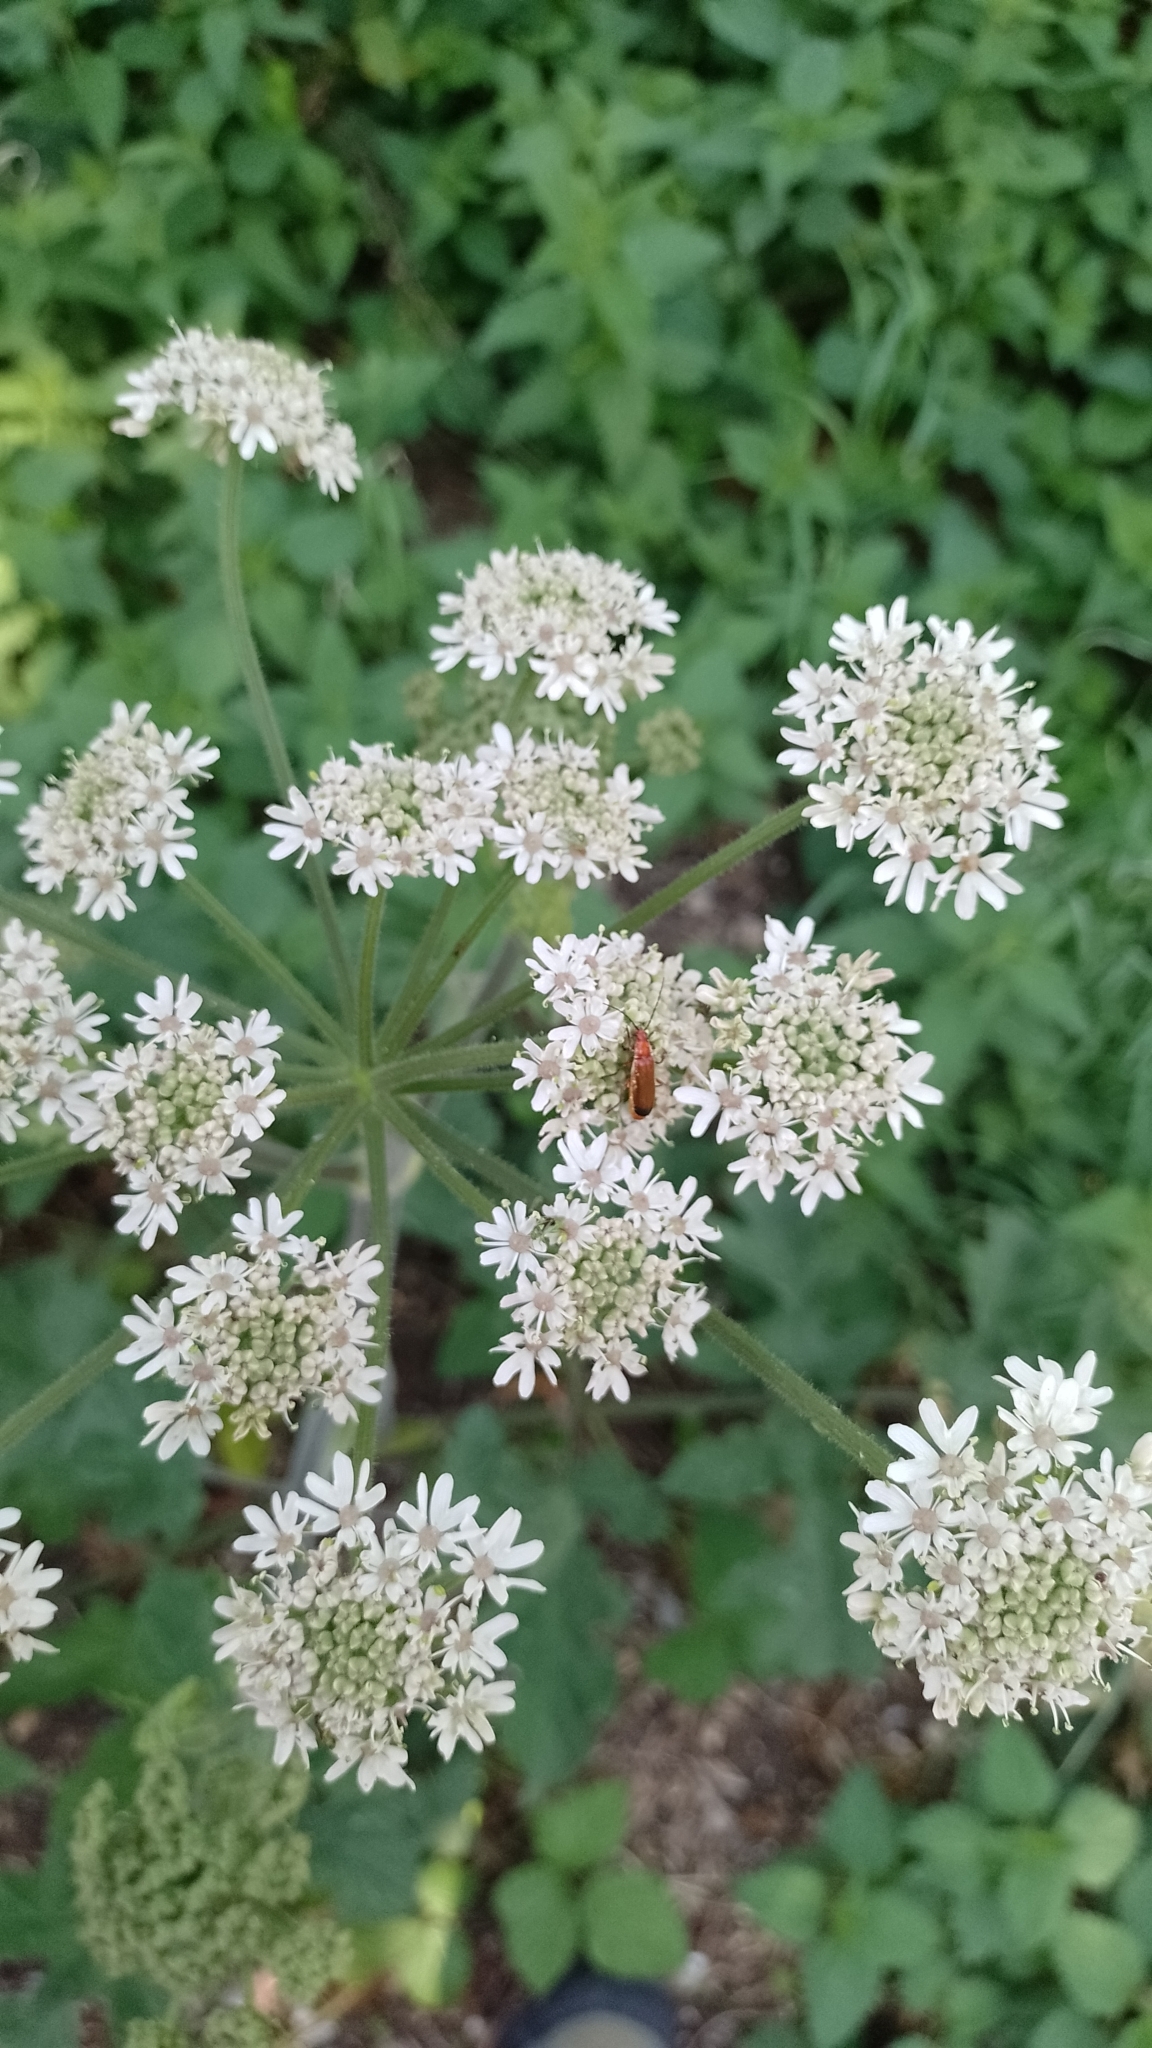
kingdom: Animalia
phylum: Arthropoda
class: Insecta
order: Coleoptera
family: Cantharidae
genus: Rhagonycha
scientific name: Rhagonycha fulva
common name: Common red soldier beetle
